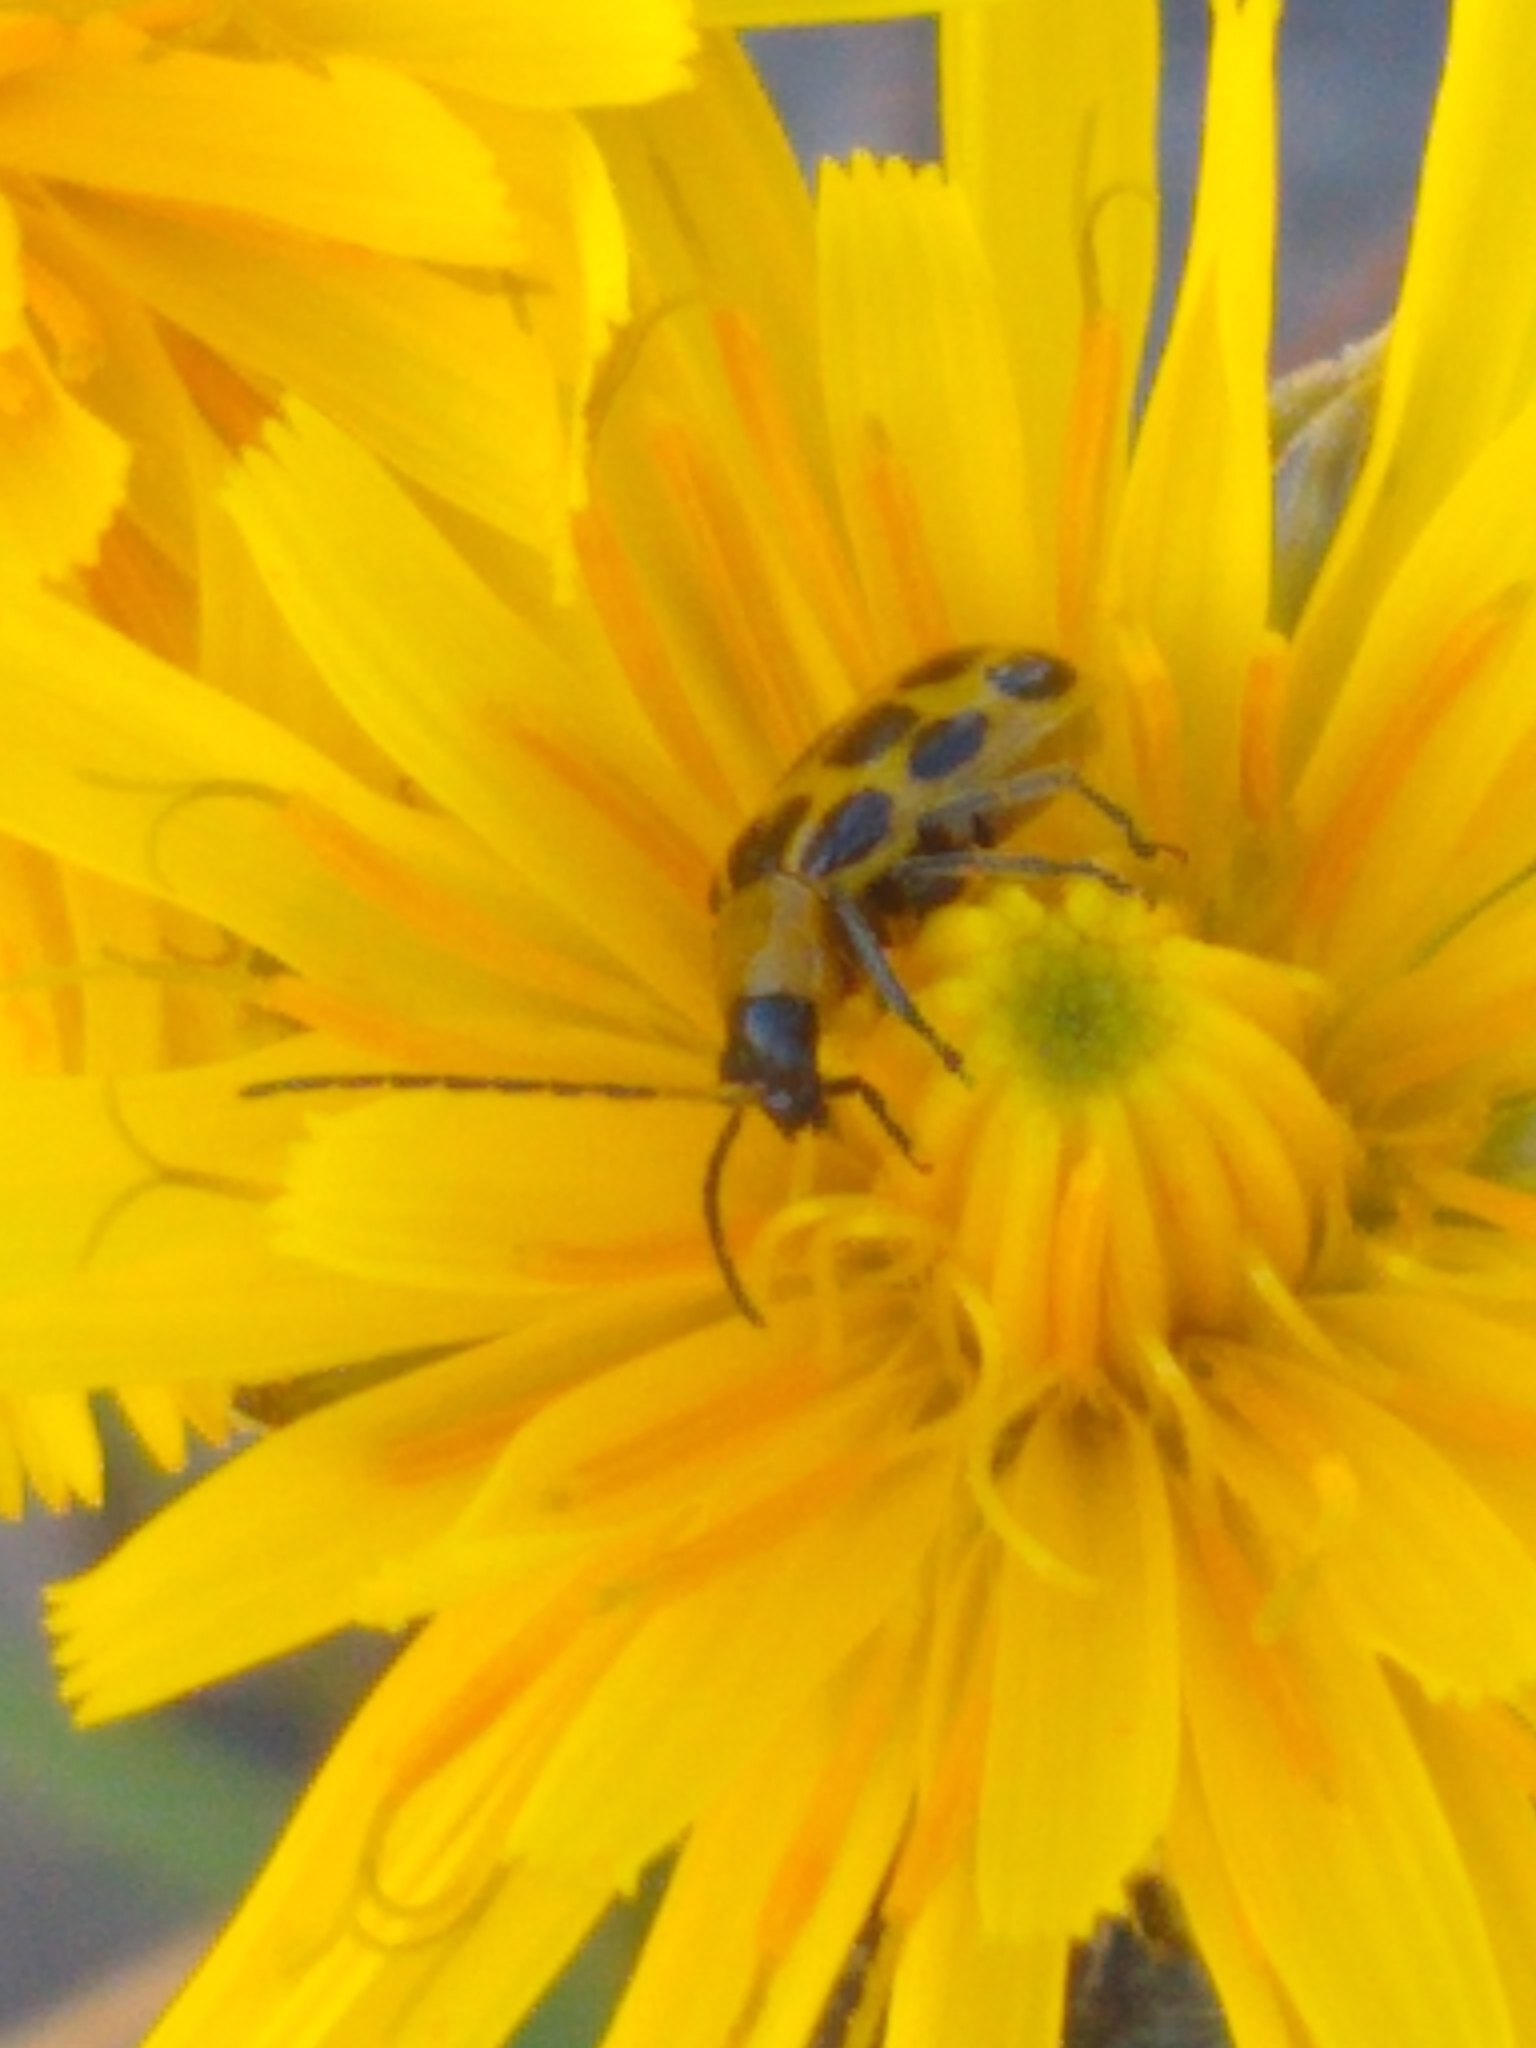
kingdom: Animalia
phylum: Arthropoda
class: Insecta
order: Coleoptera
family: Chrysomelidae
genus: Diabrotica
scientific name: Diabrotica undecimpunctata
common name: Spotted cucumber beetle
